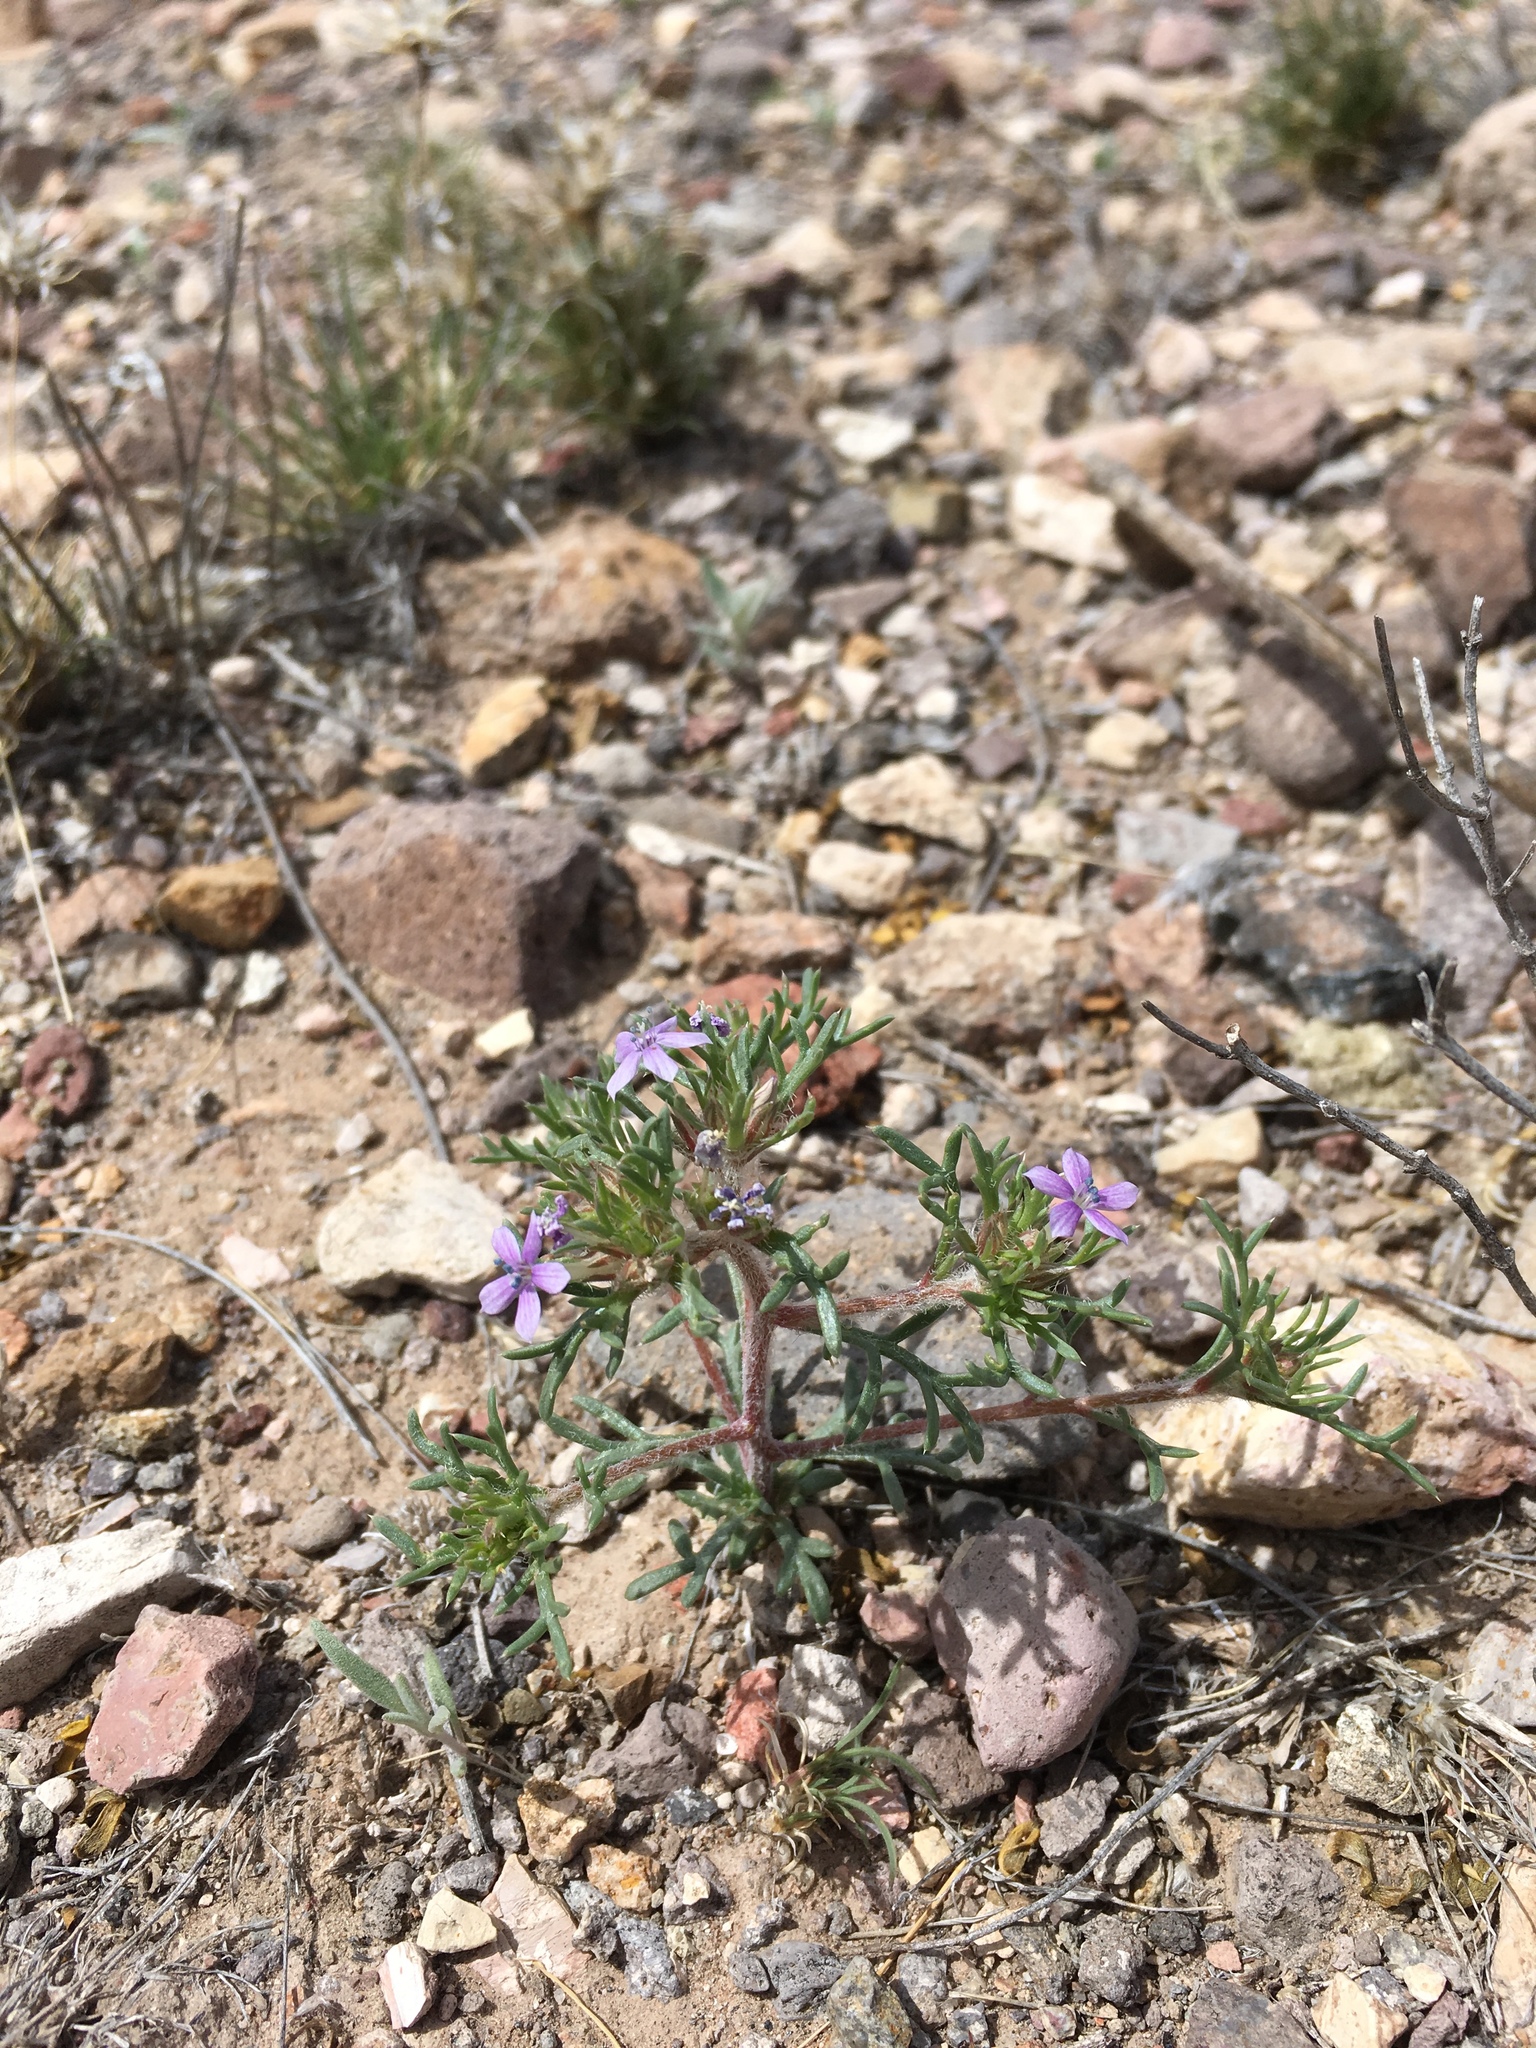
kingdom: Plantae
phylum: Tracheophyta
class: Magnoliopsida
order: Ericales
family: Polemoniaceae
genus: Ipomopsis
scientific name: Ipomopsis pumila
